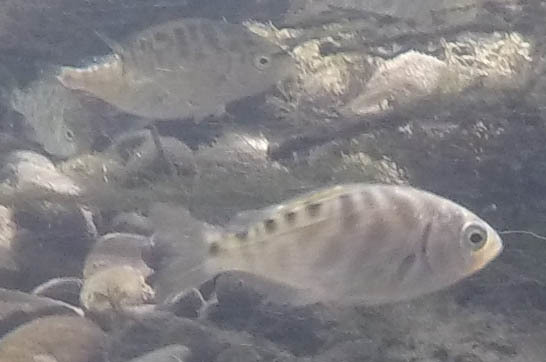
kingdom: Animalia
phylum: Chordata
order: Perciformes
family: Embiotocidae
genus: Hysterocarpus
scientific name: Hysterocarpus traskii
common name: Russian river tule perch
